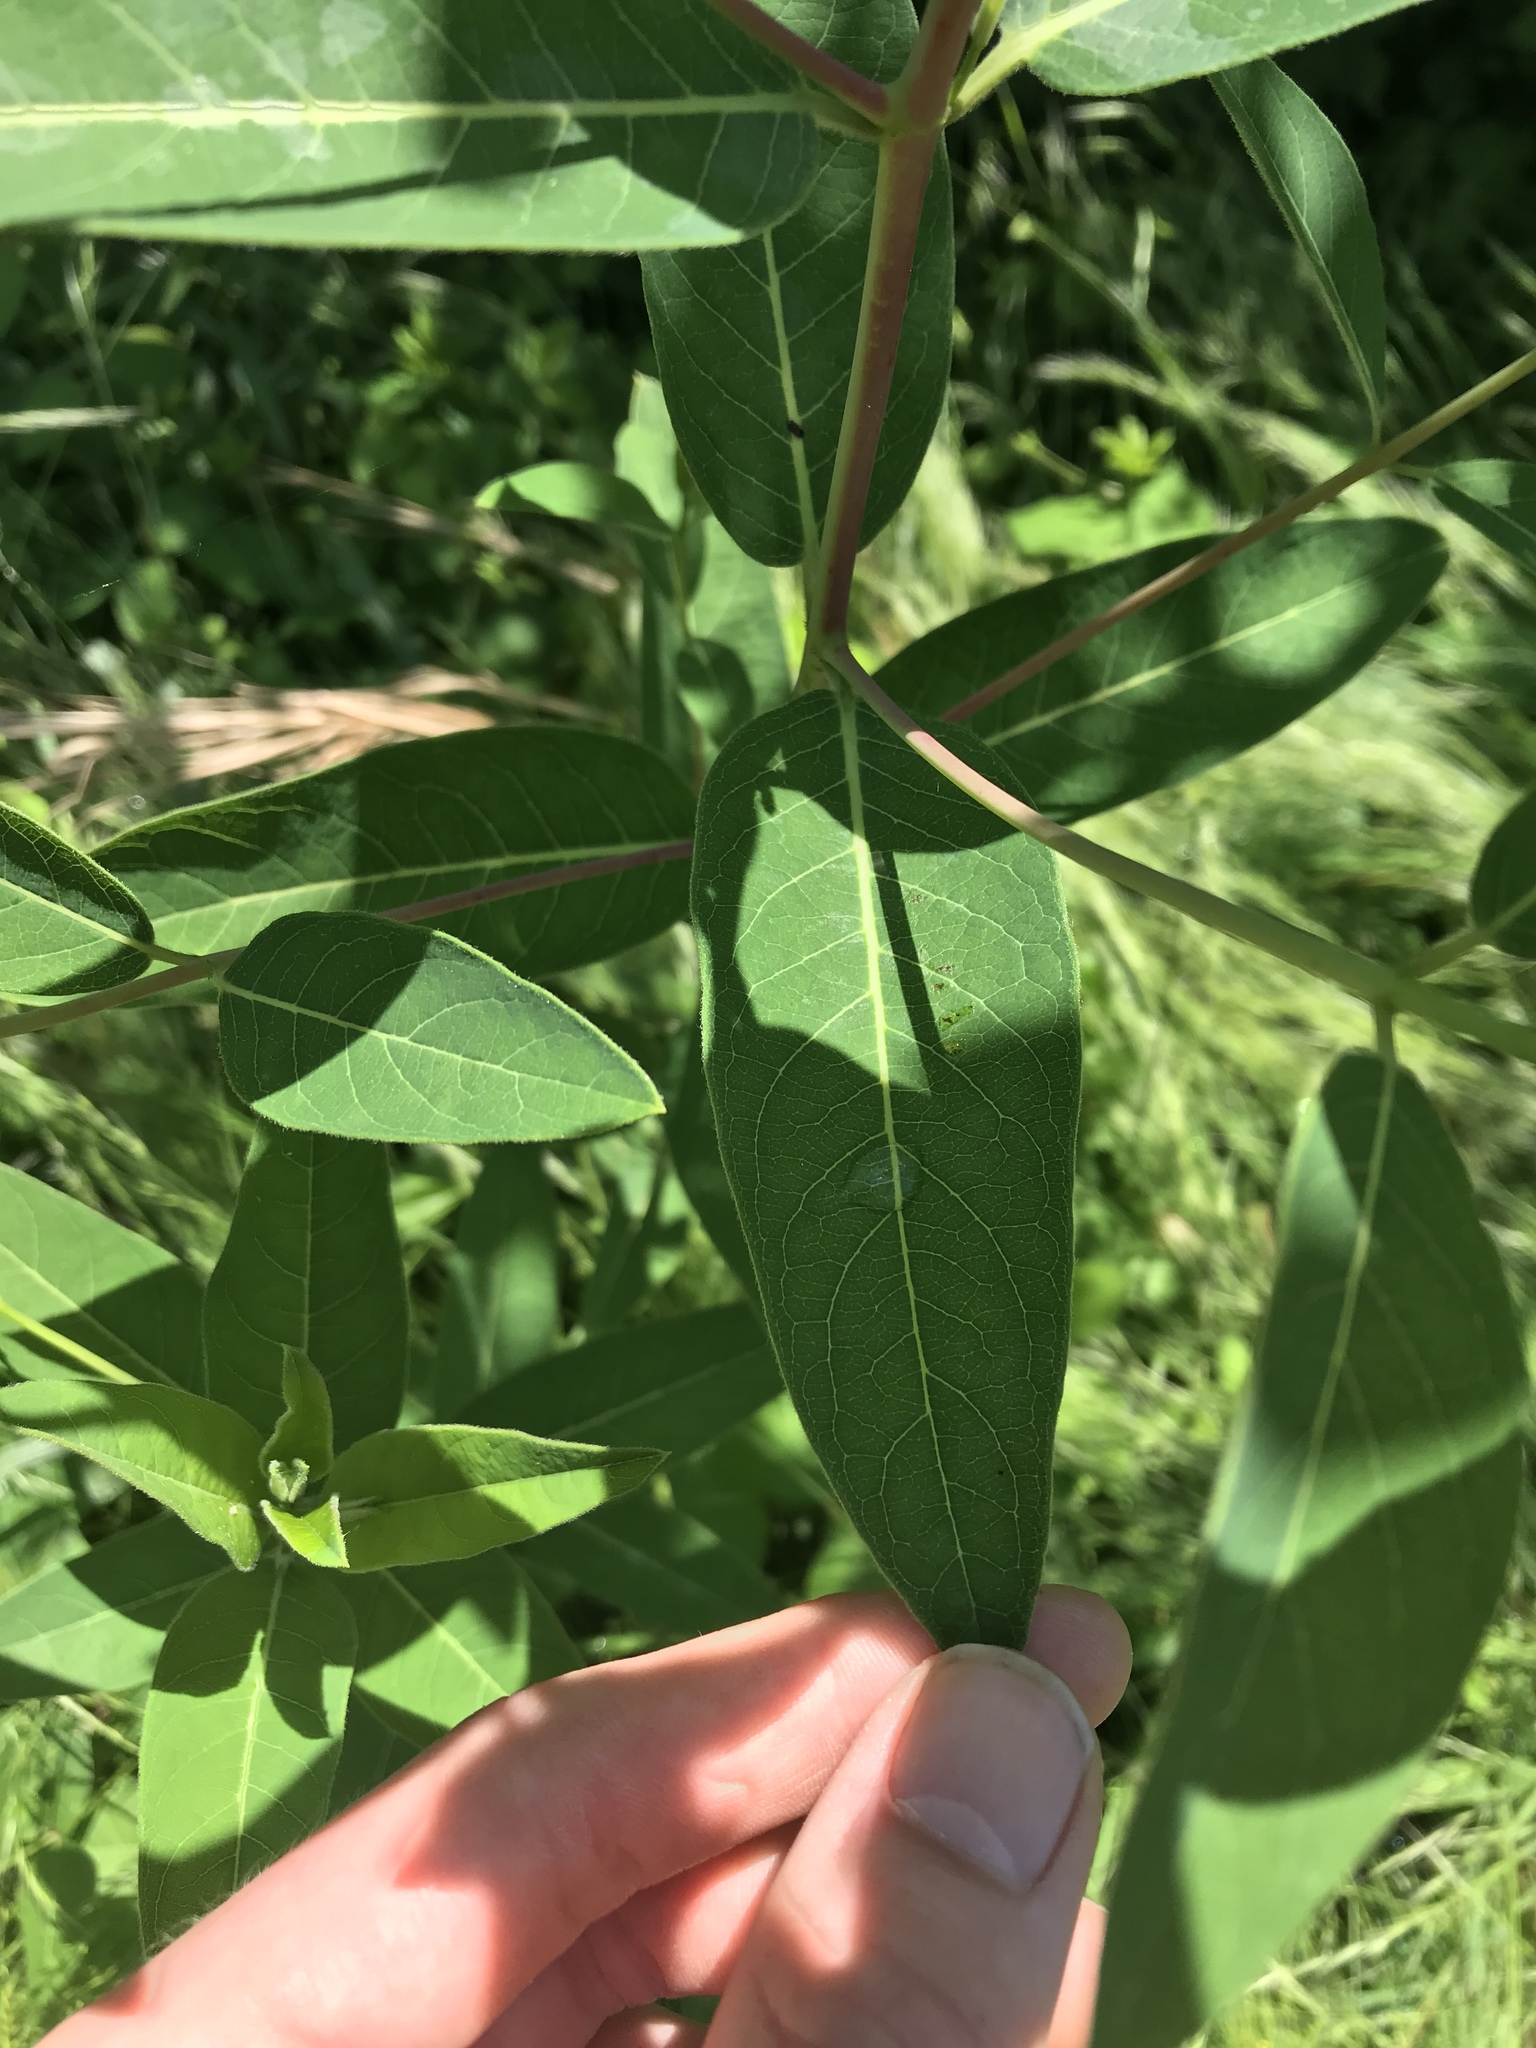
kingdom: Plantae
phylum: Tracheophyta
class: Magnoliopsida
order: Gentianales
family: Apocynaceae
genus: Apocynum
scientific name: Apocynum cannabinum
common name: Hemp dogbane
